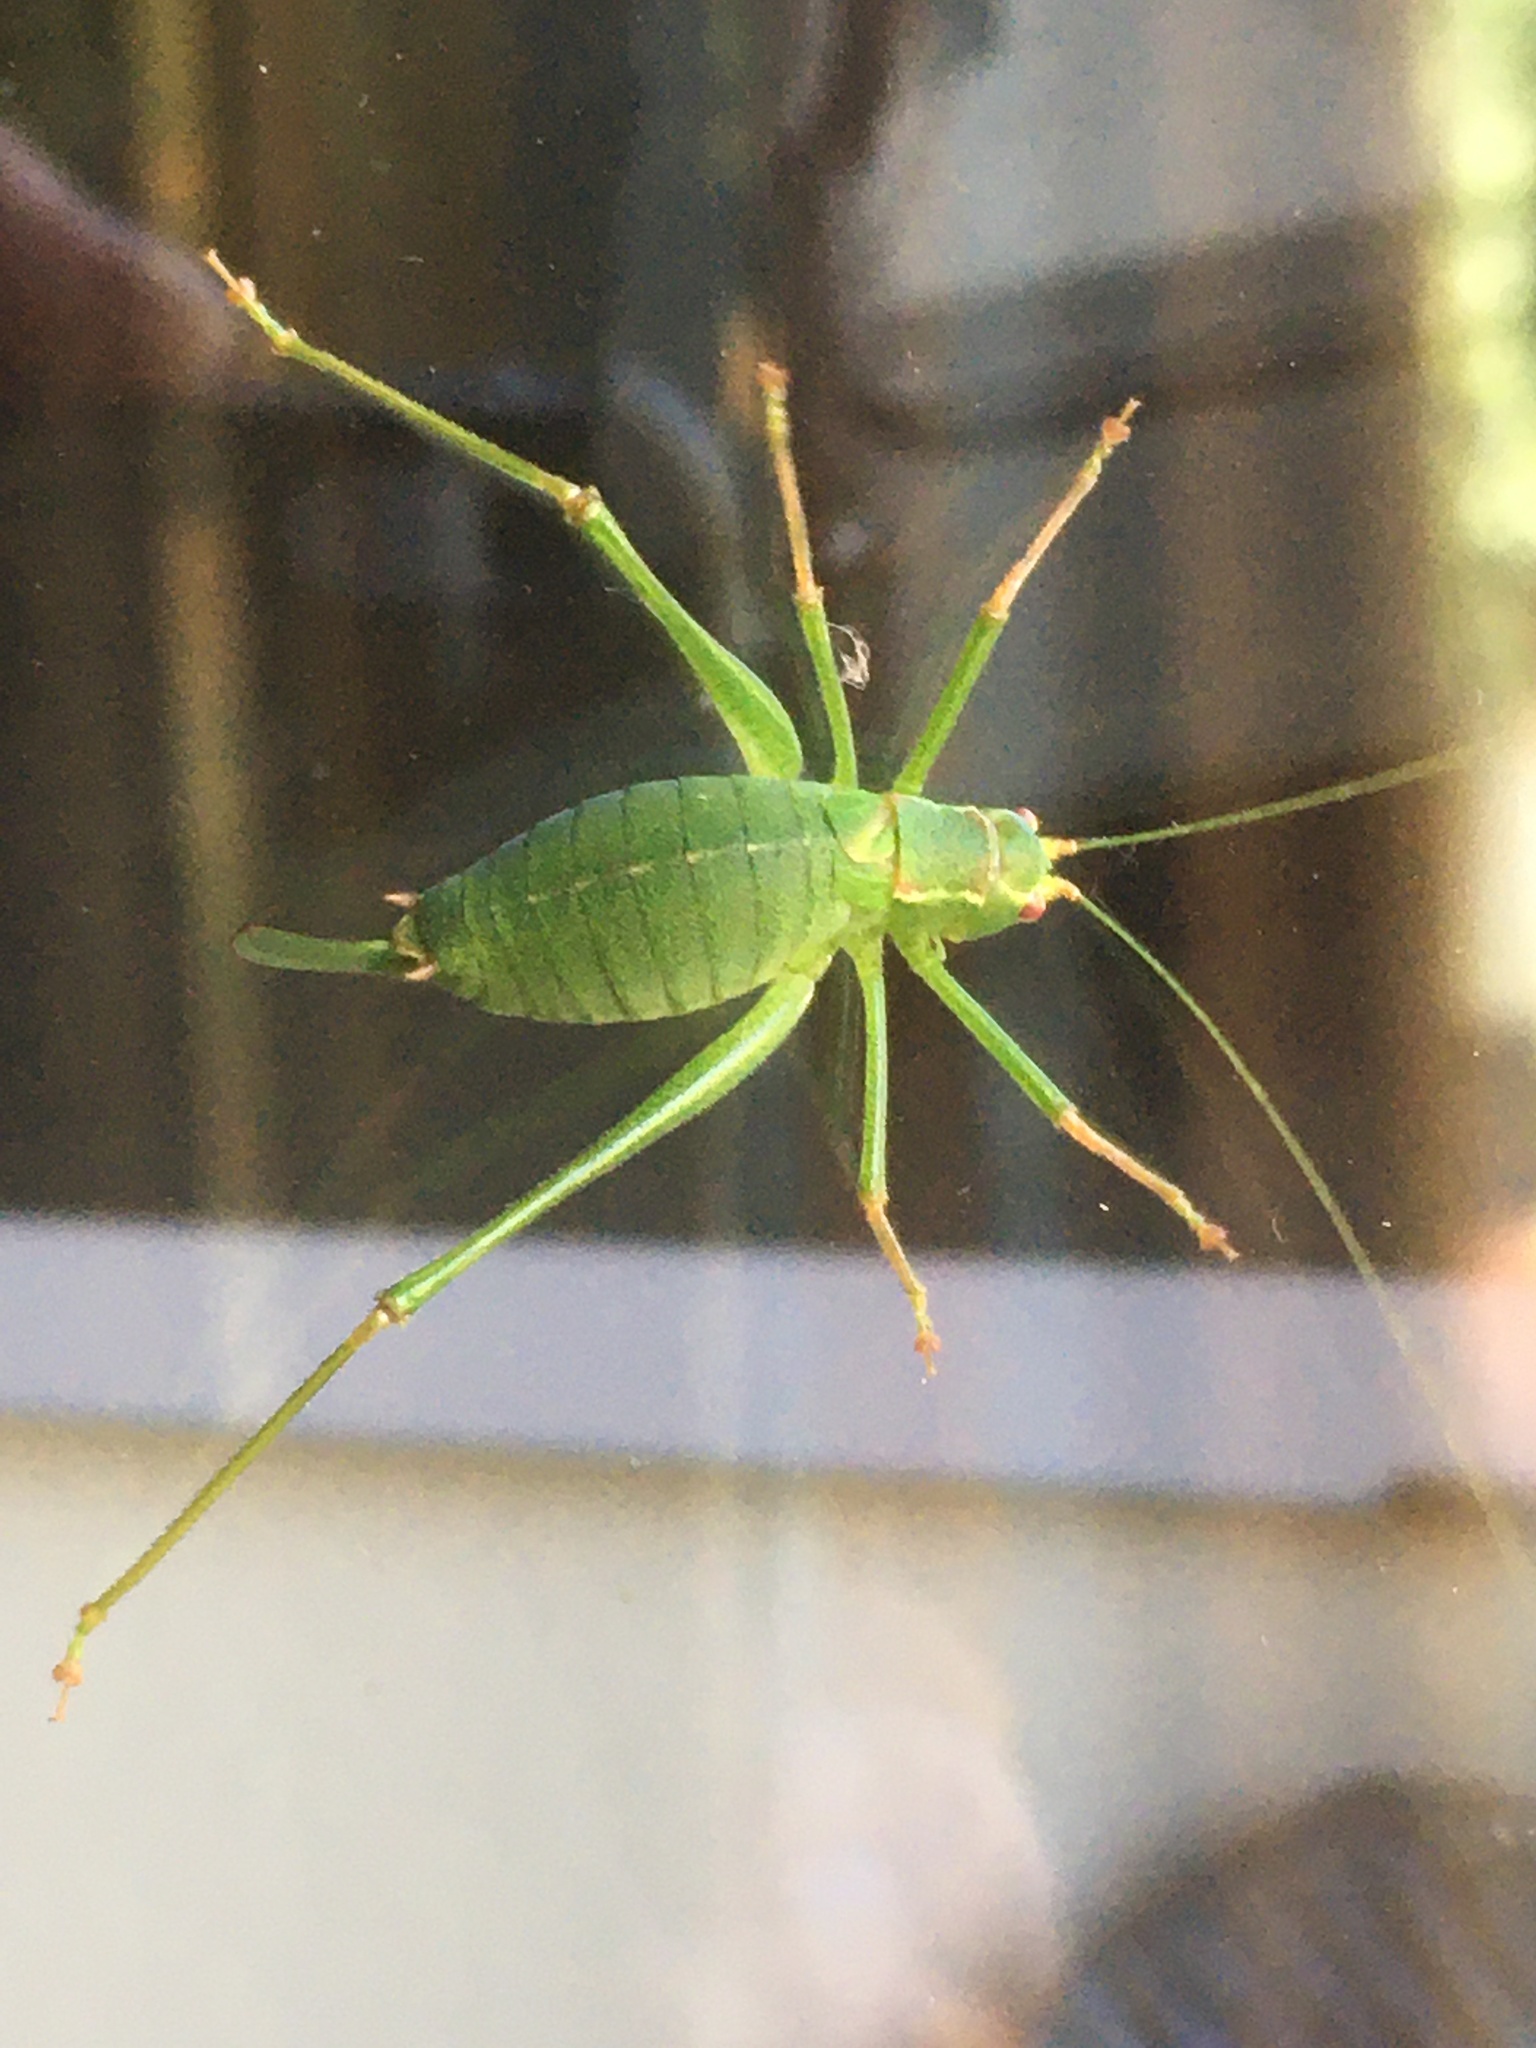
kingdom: Animalia
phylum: Arthropoda
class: Insecta
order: Orthoptera
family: Tettigoniidae
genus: Leptophyes
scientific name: Leptophyes punctatissima
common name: Speckled bush-cricket
